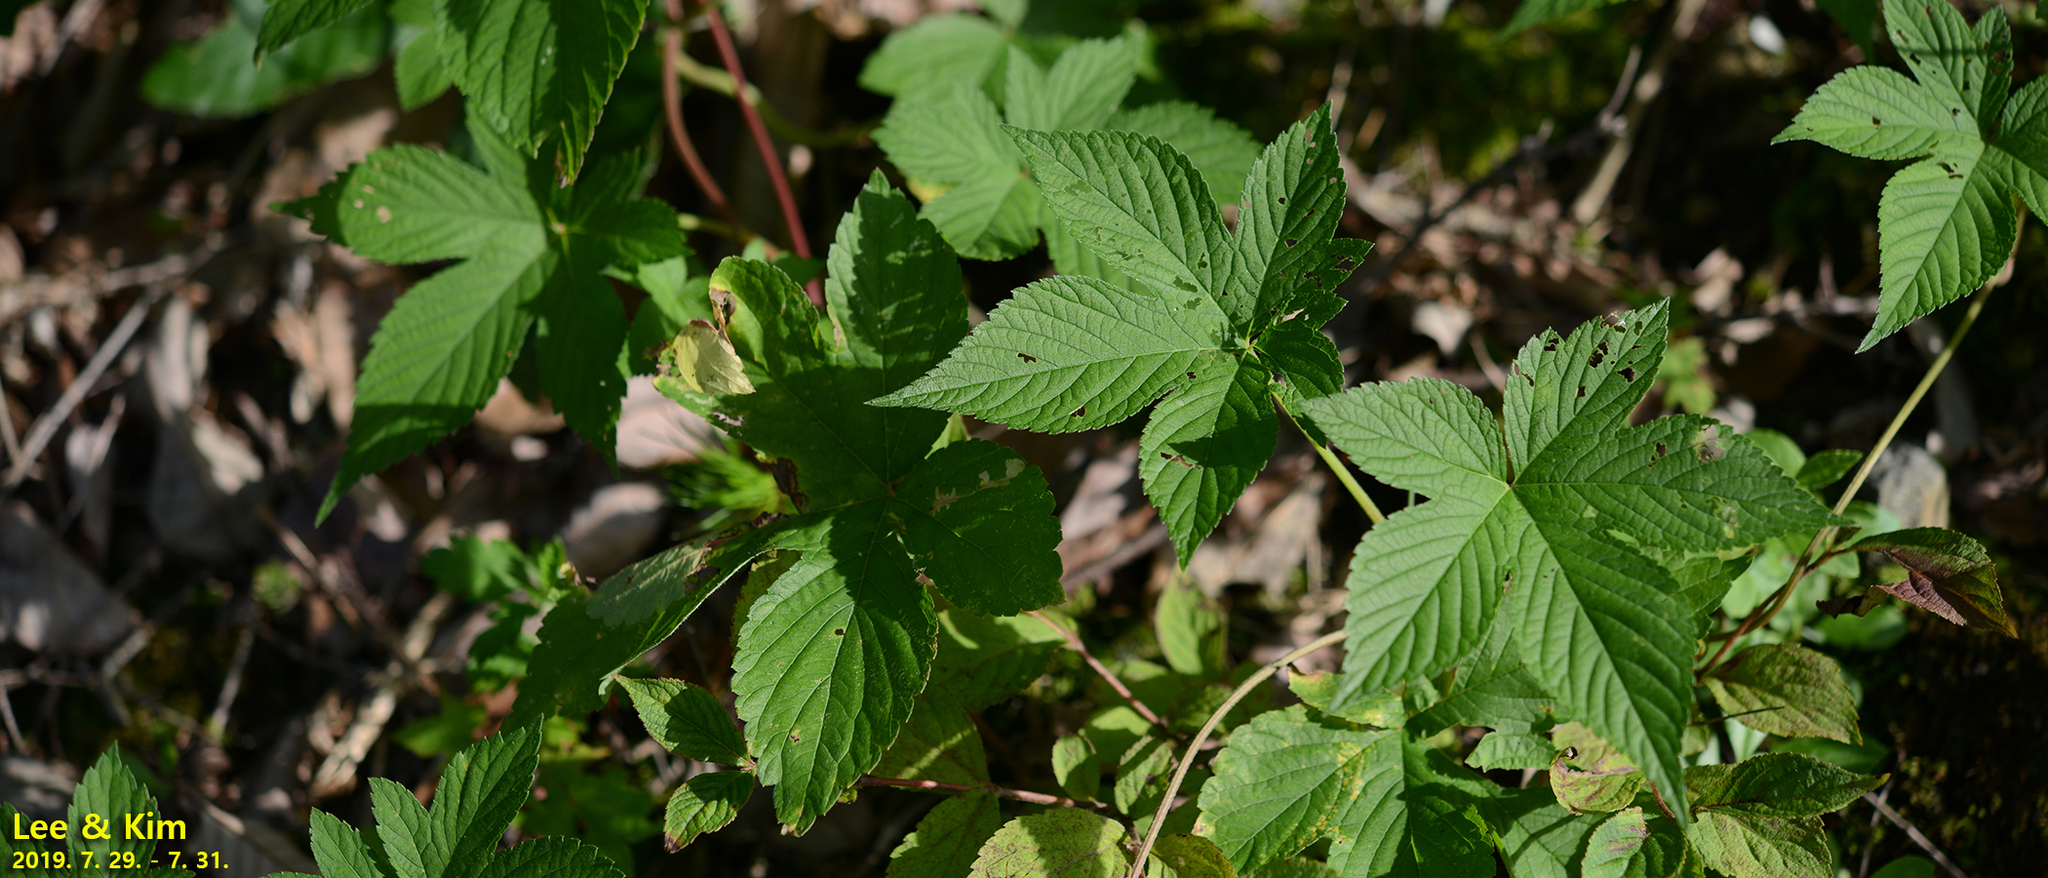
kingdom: Plantae
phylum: Tracheophyta
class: Magnoliopsida
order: Rosales
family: Cannabaceae
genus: Humulus
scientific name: Humulus scandens
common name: Japanese hop
